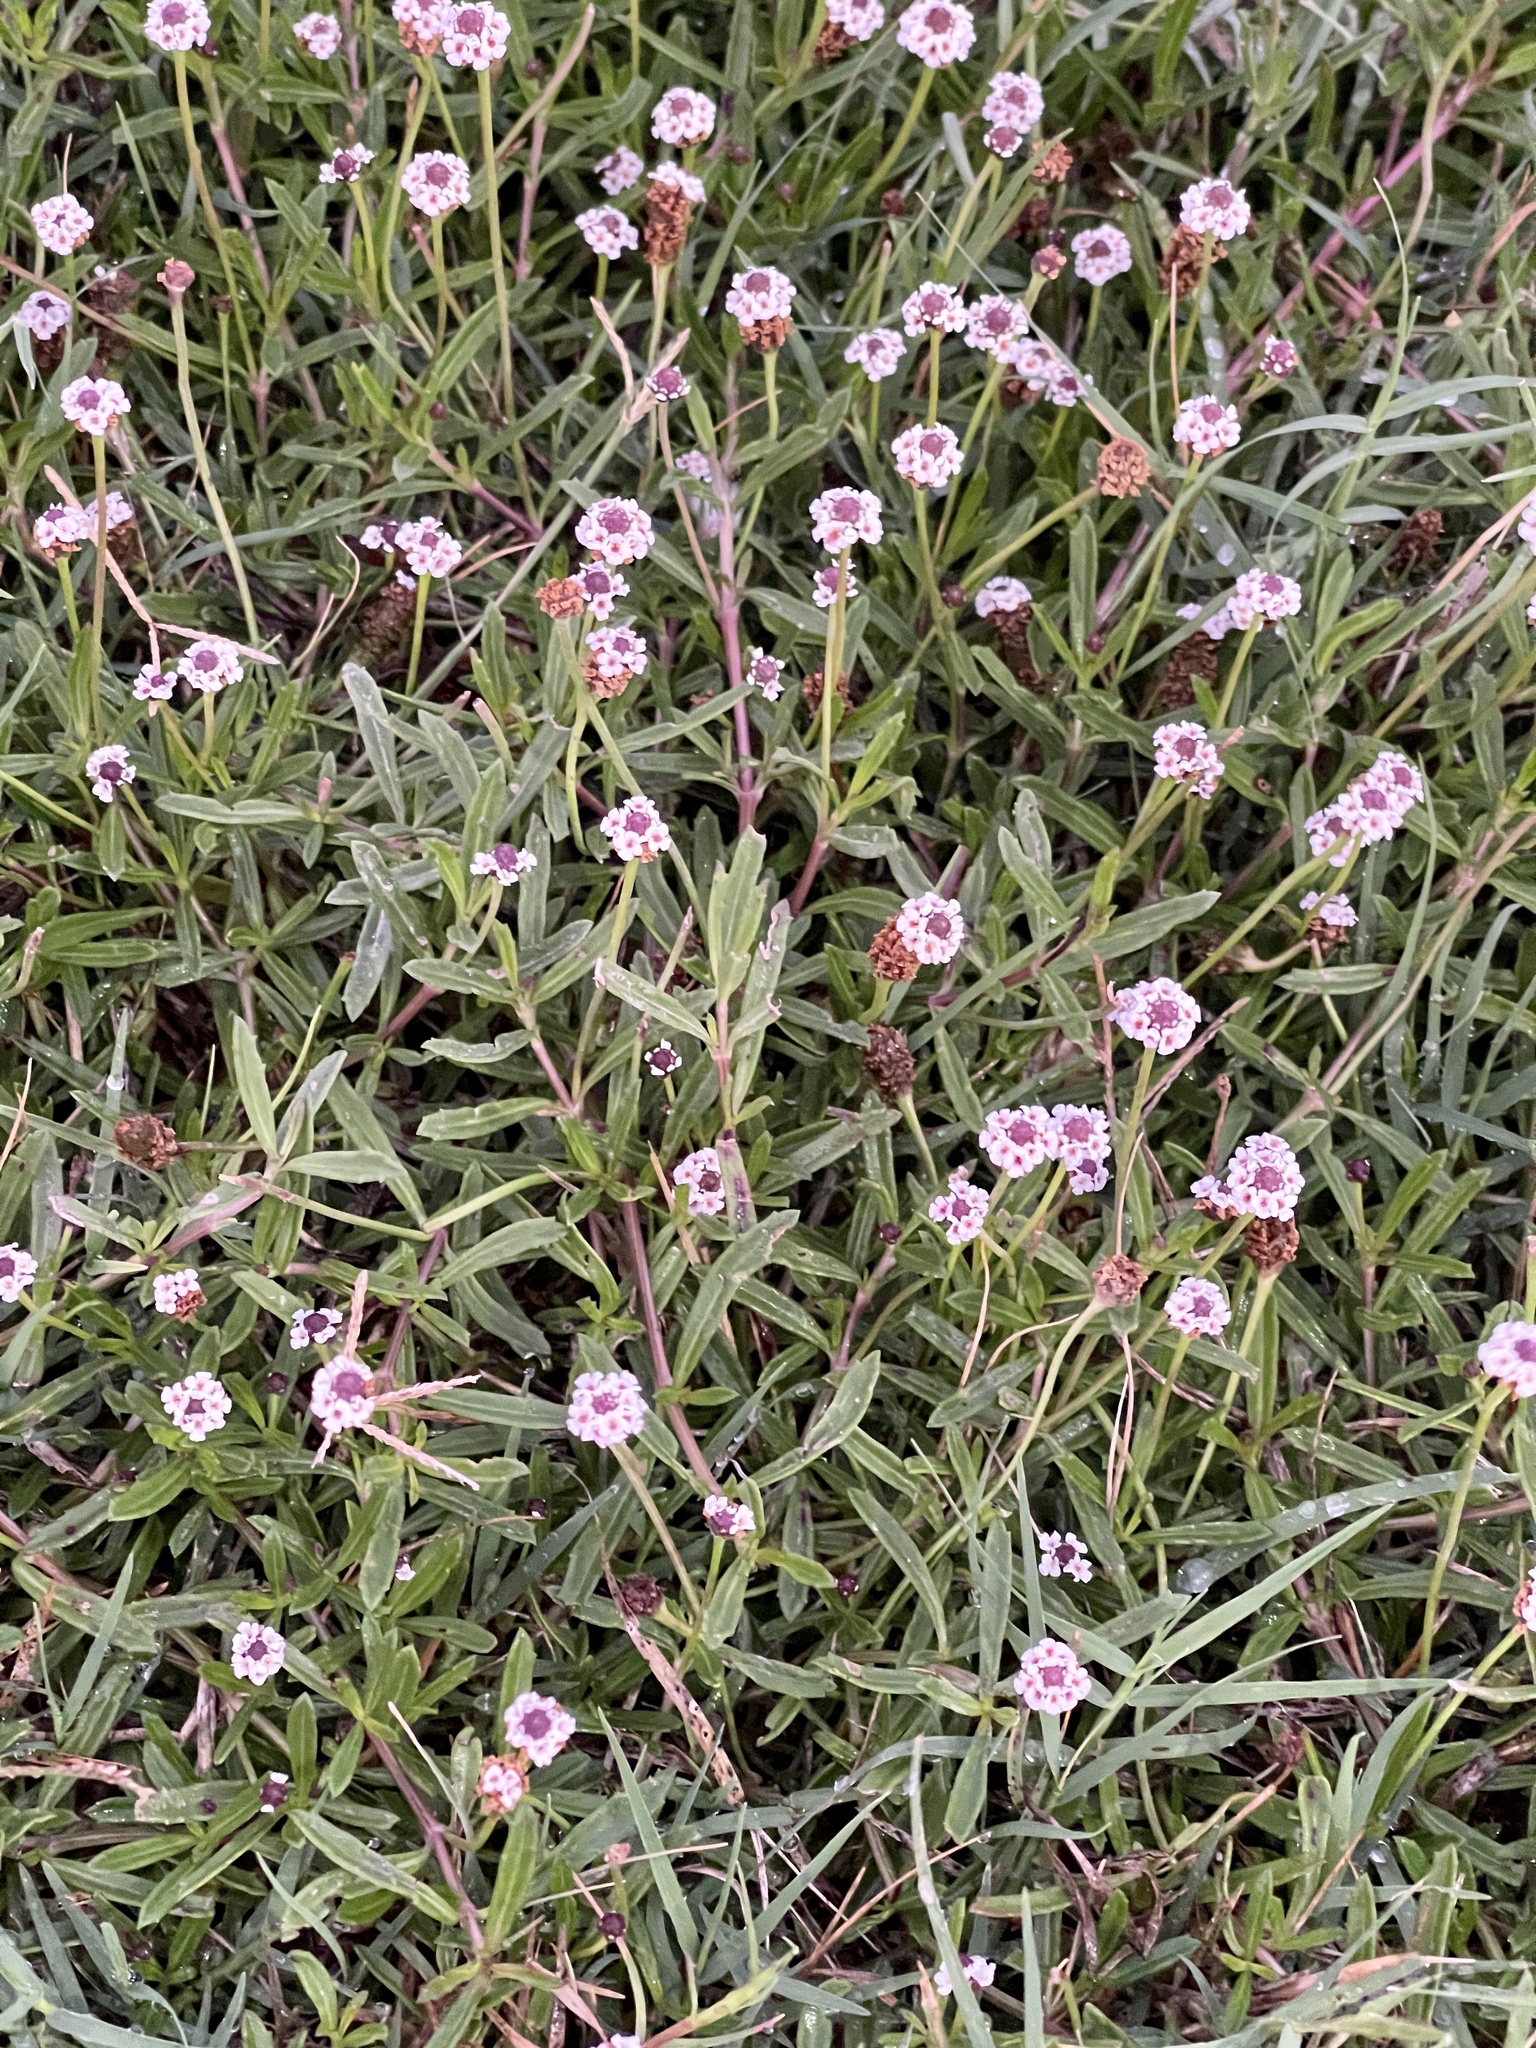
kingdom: Plantae
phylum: Tracheophyta
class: Magnoliopsida
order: Lamiales
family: Verbenaceae
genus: Phyla
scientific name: Phyla nodiflora
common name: Frogfruit
